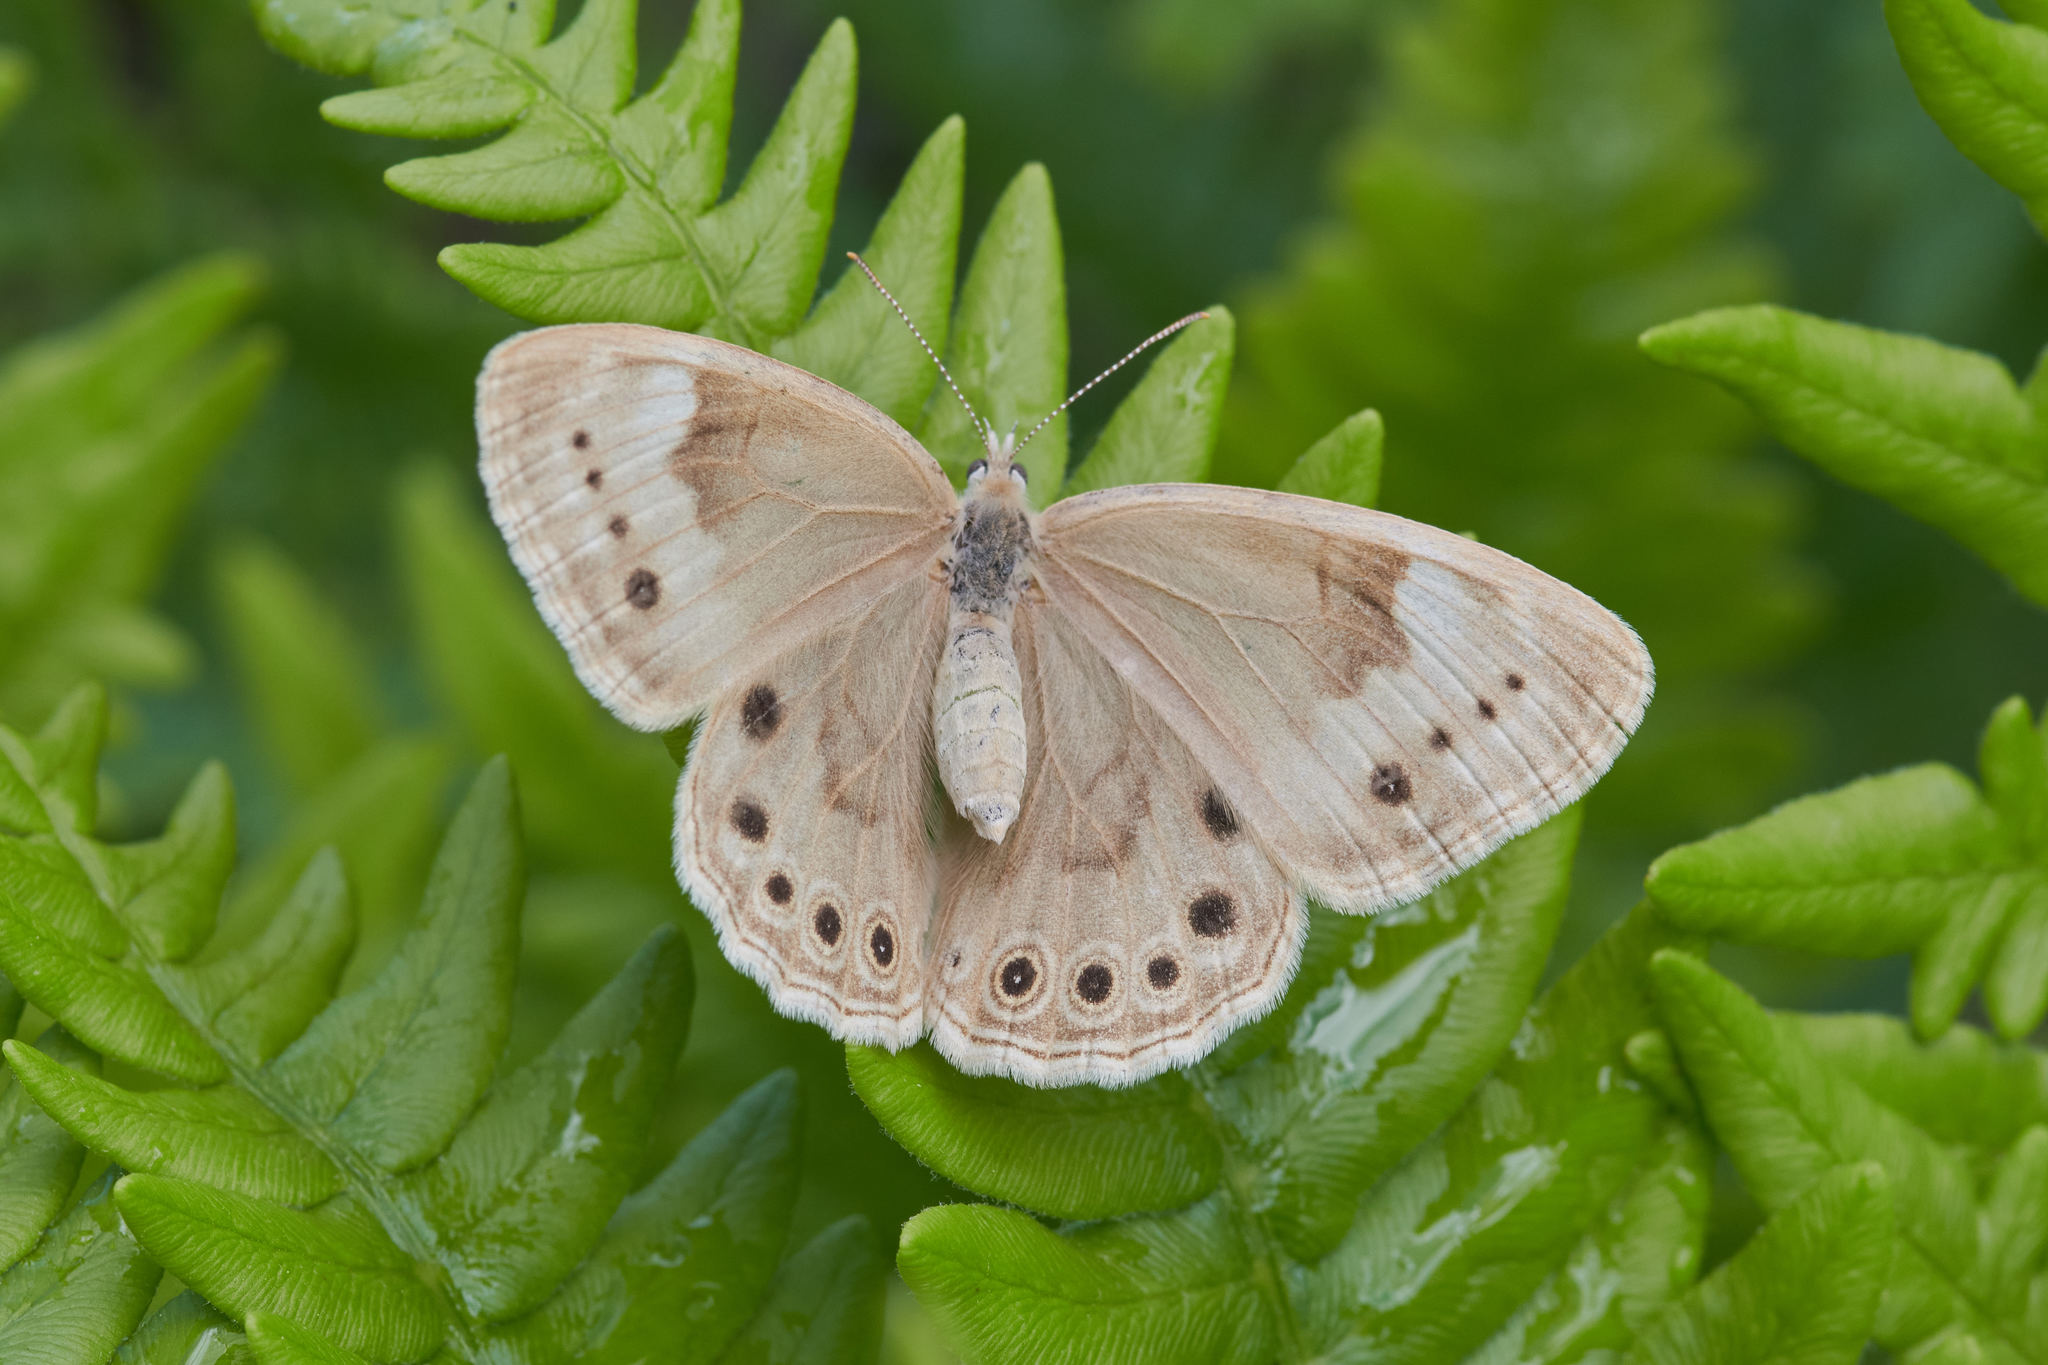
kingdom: Animalia
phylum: Arthropoda
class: Insecta
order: Lepidoptera
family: Nymphalidae
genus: Lethe
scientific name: Lethe eurydice
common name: Eyed brown
